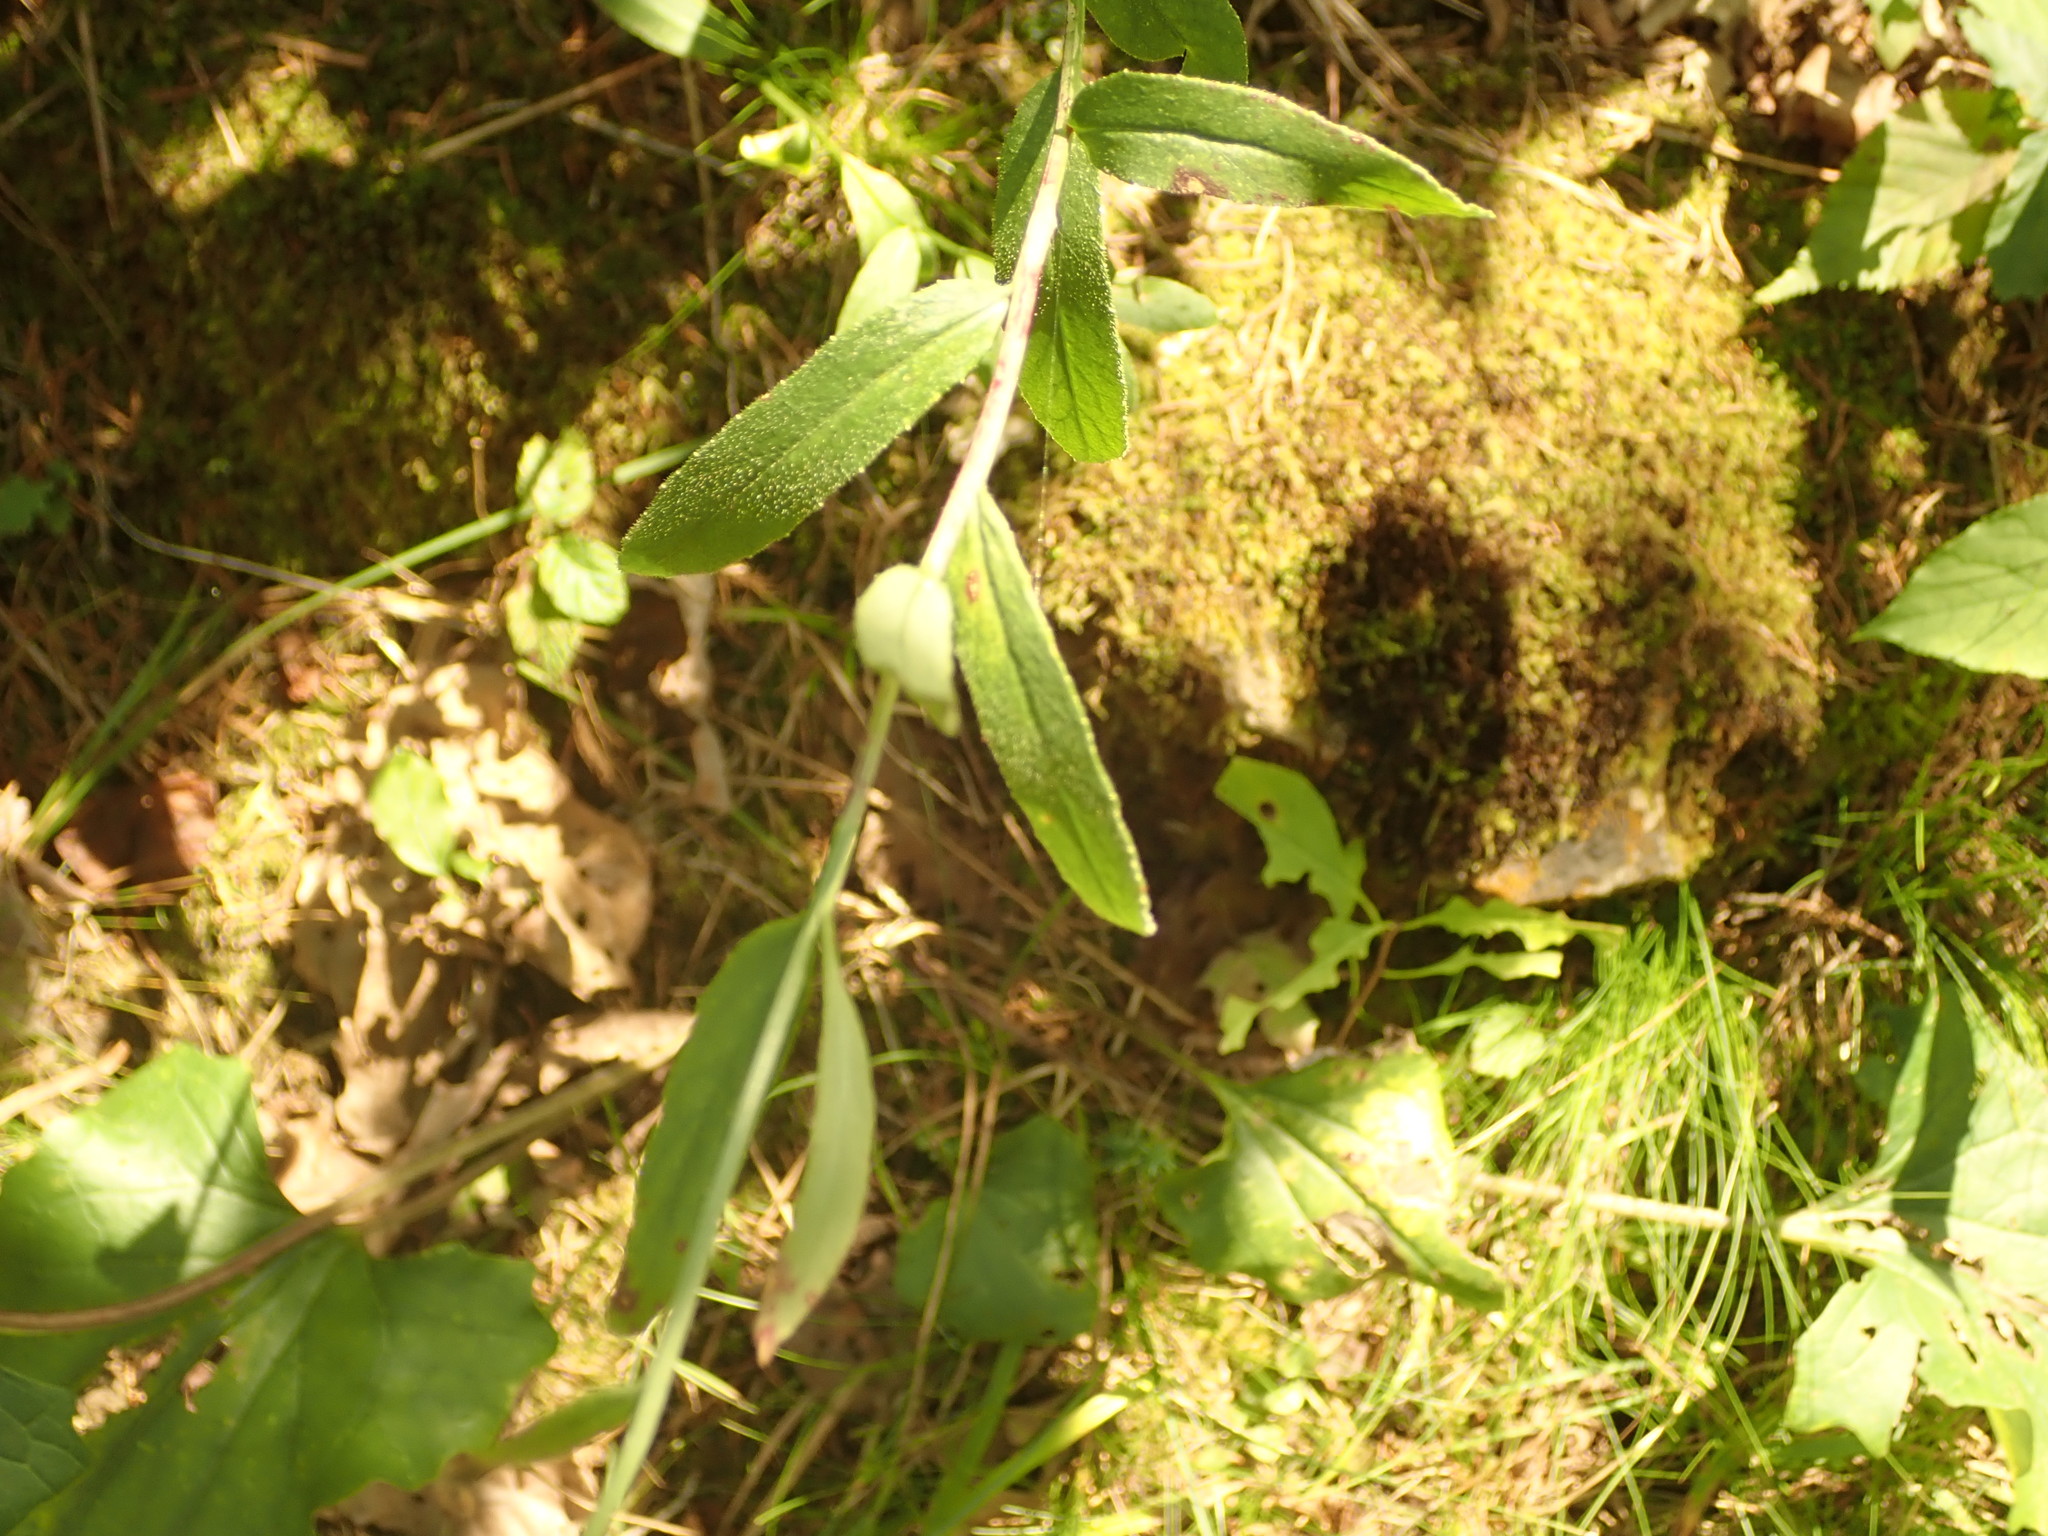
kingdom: Plantae
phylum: Tracheophyta
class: Magnoliopsida
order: Asterales
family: Campanulaceae
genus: Lobelia
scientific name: Lobelia spicata
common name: Pale-spike lobelia
